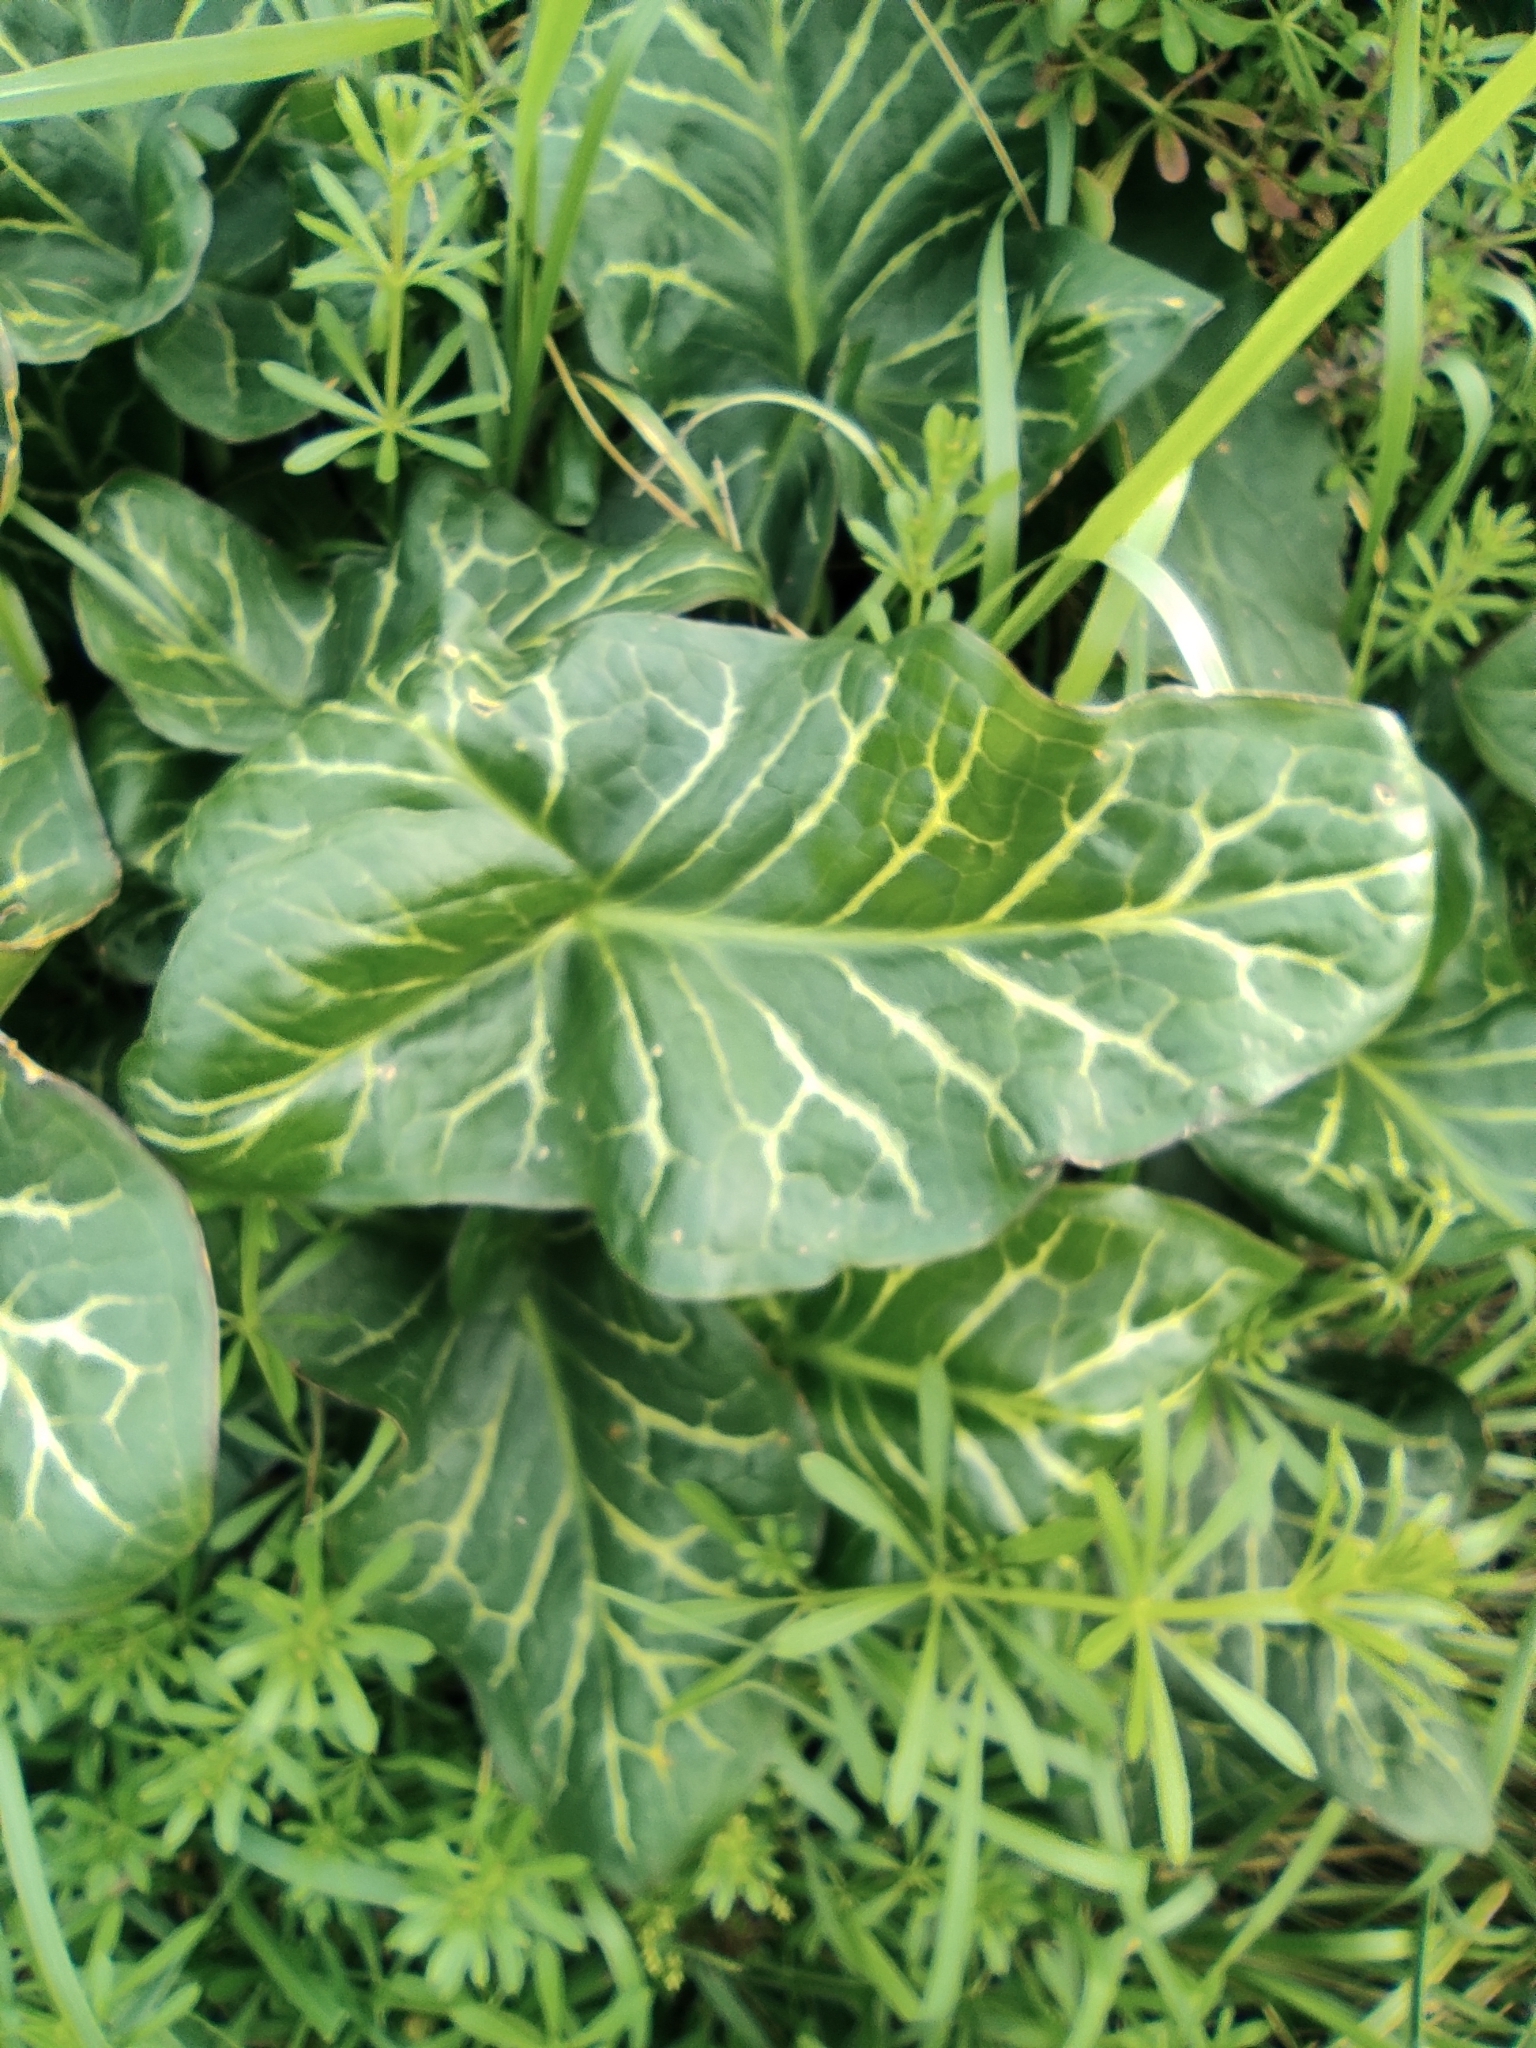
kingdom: Plantae
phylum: Tracheophyta
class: Liliopsida
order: Alismatales
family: Araceae
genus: Arum
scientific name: Arum italicum
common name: Italian lords-and-ladies
